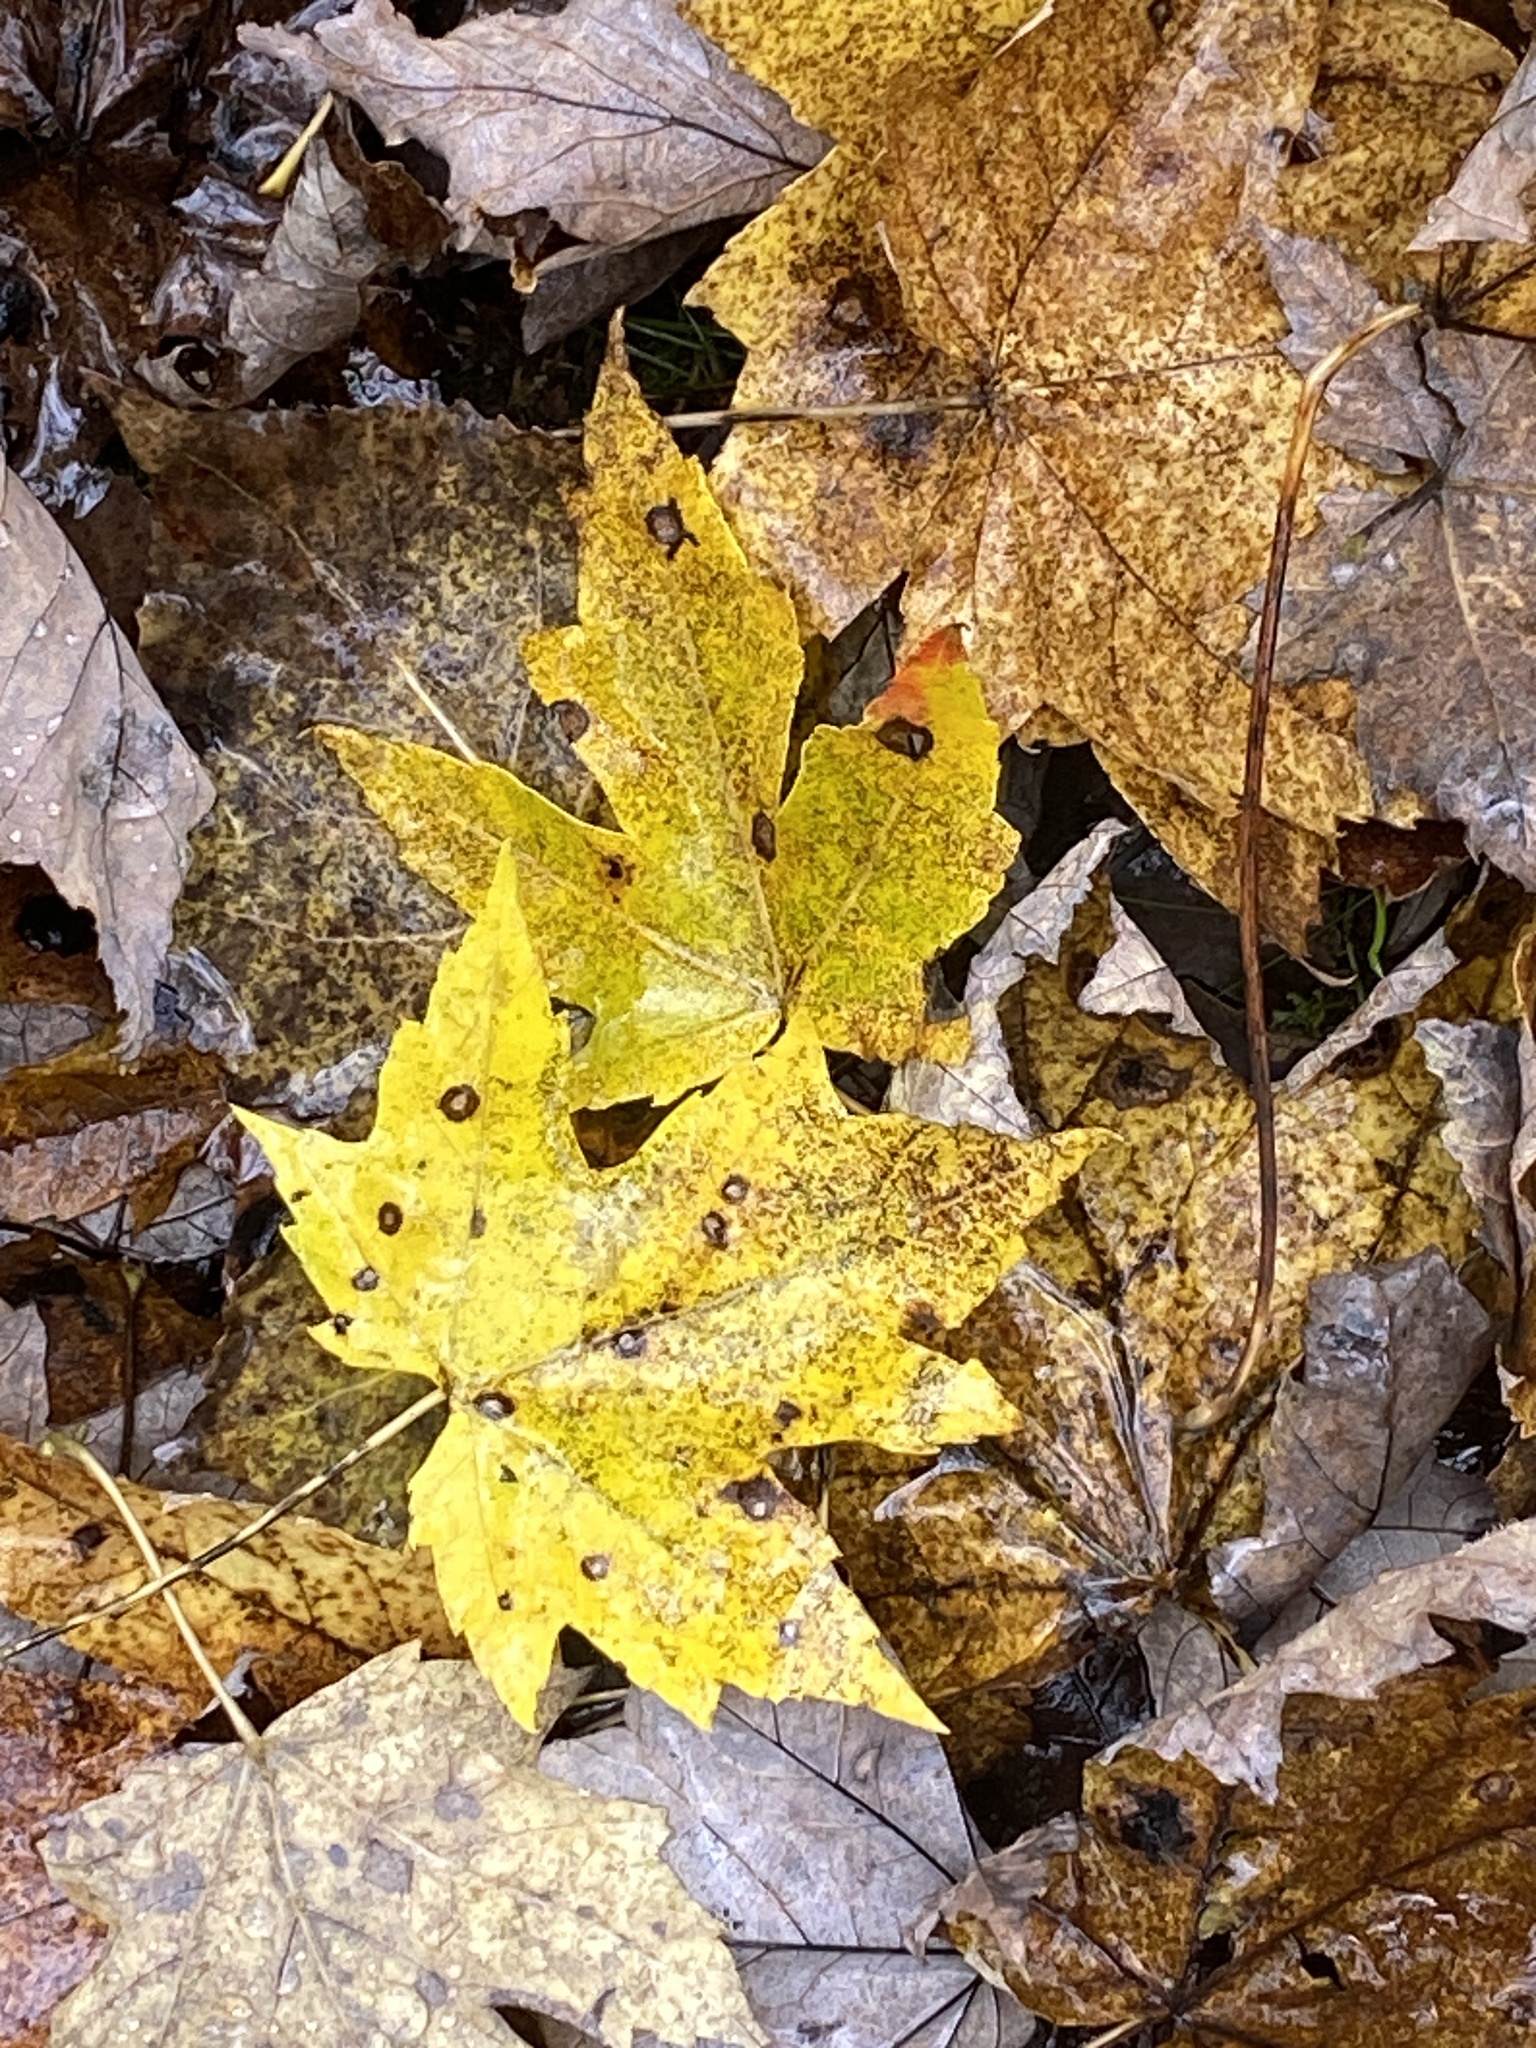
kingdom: Plantae
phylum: Tracheophyta
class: Magnoliopsida
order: Sapindales
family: Sapindaceae
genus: Acer
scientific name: Acer saccharinum
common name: Silver maple
